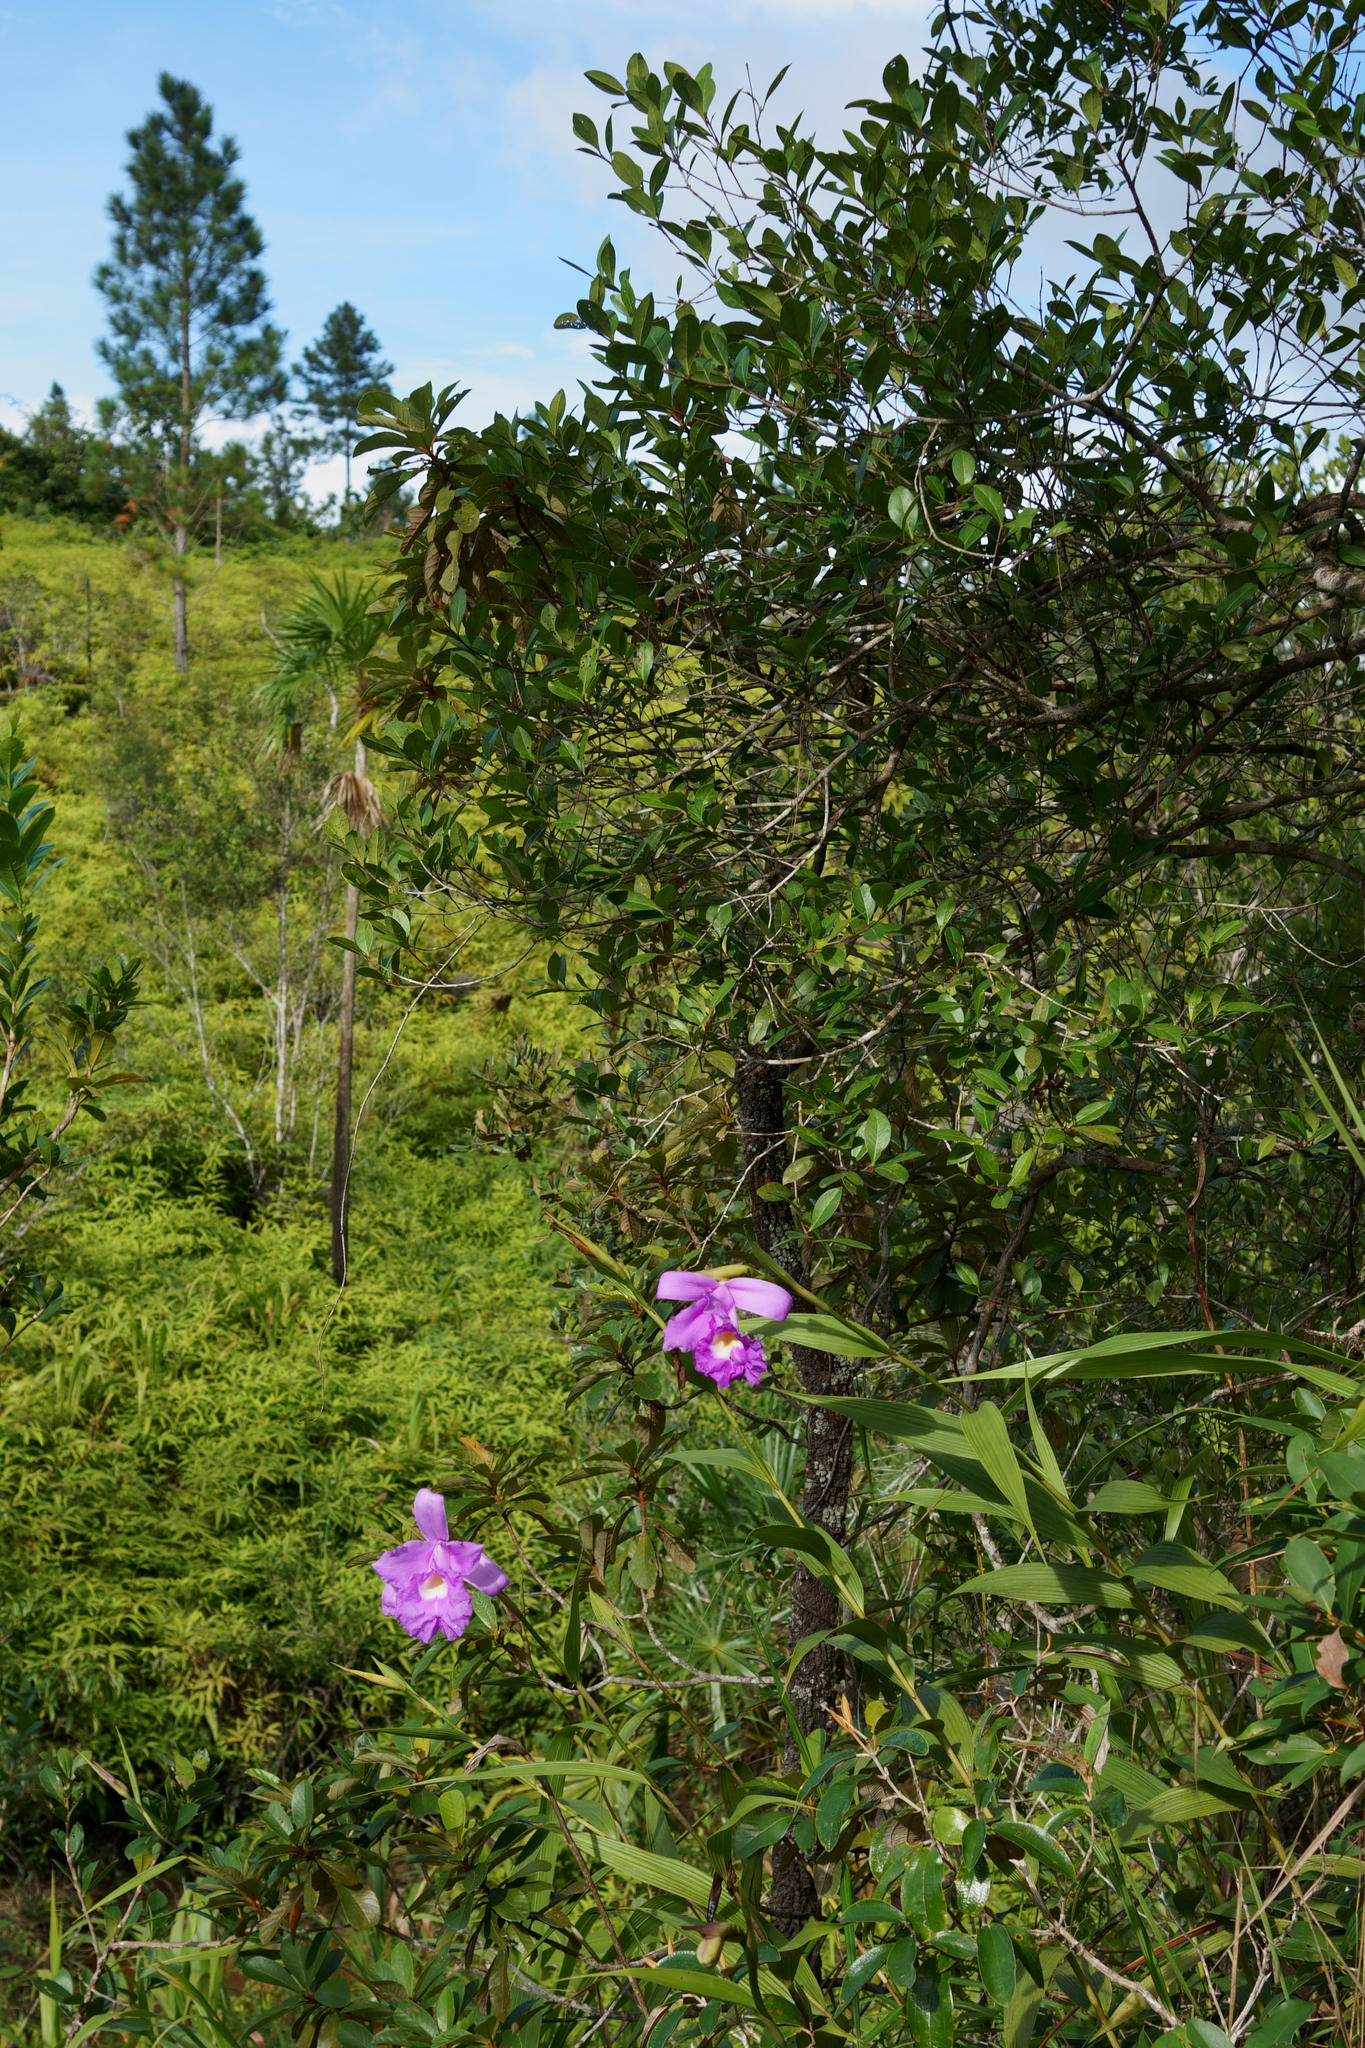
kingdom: Plantae
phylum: Tracheophyta
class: Liliopsida
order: Asparagales
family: Orchidaceae
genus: Sobralia
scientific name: Sobralia macrantha
